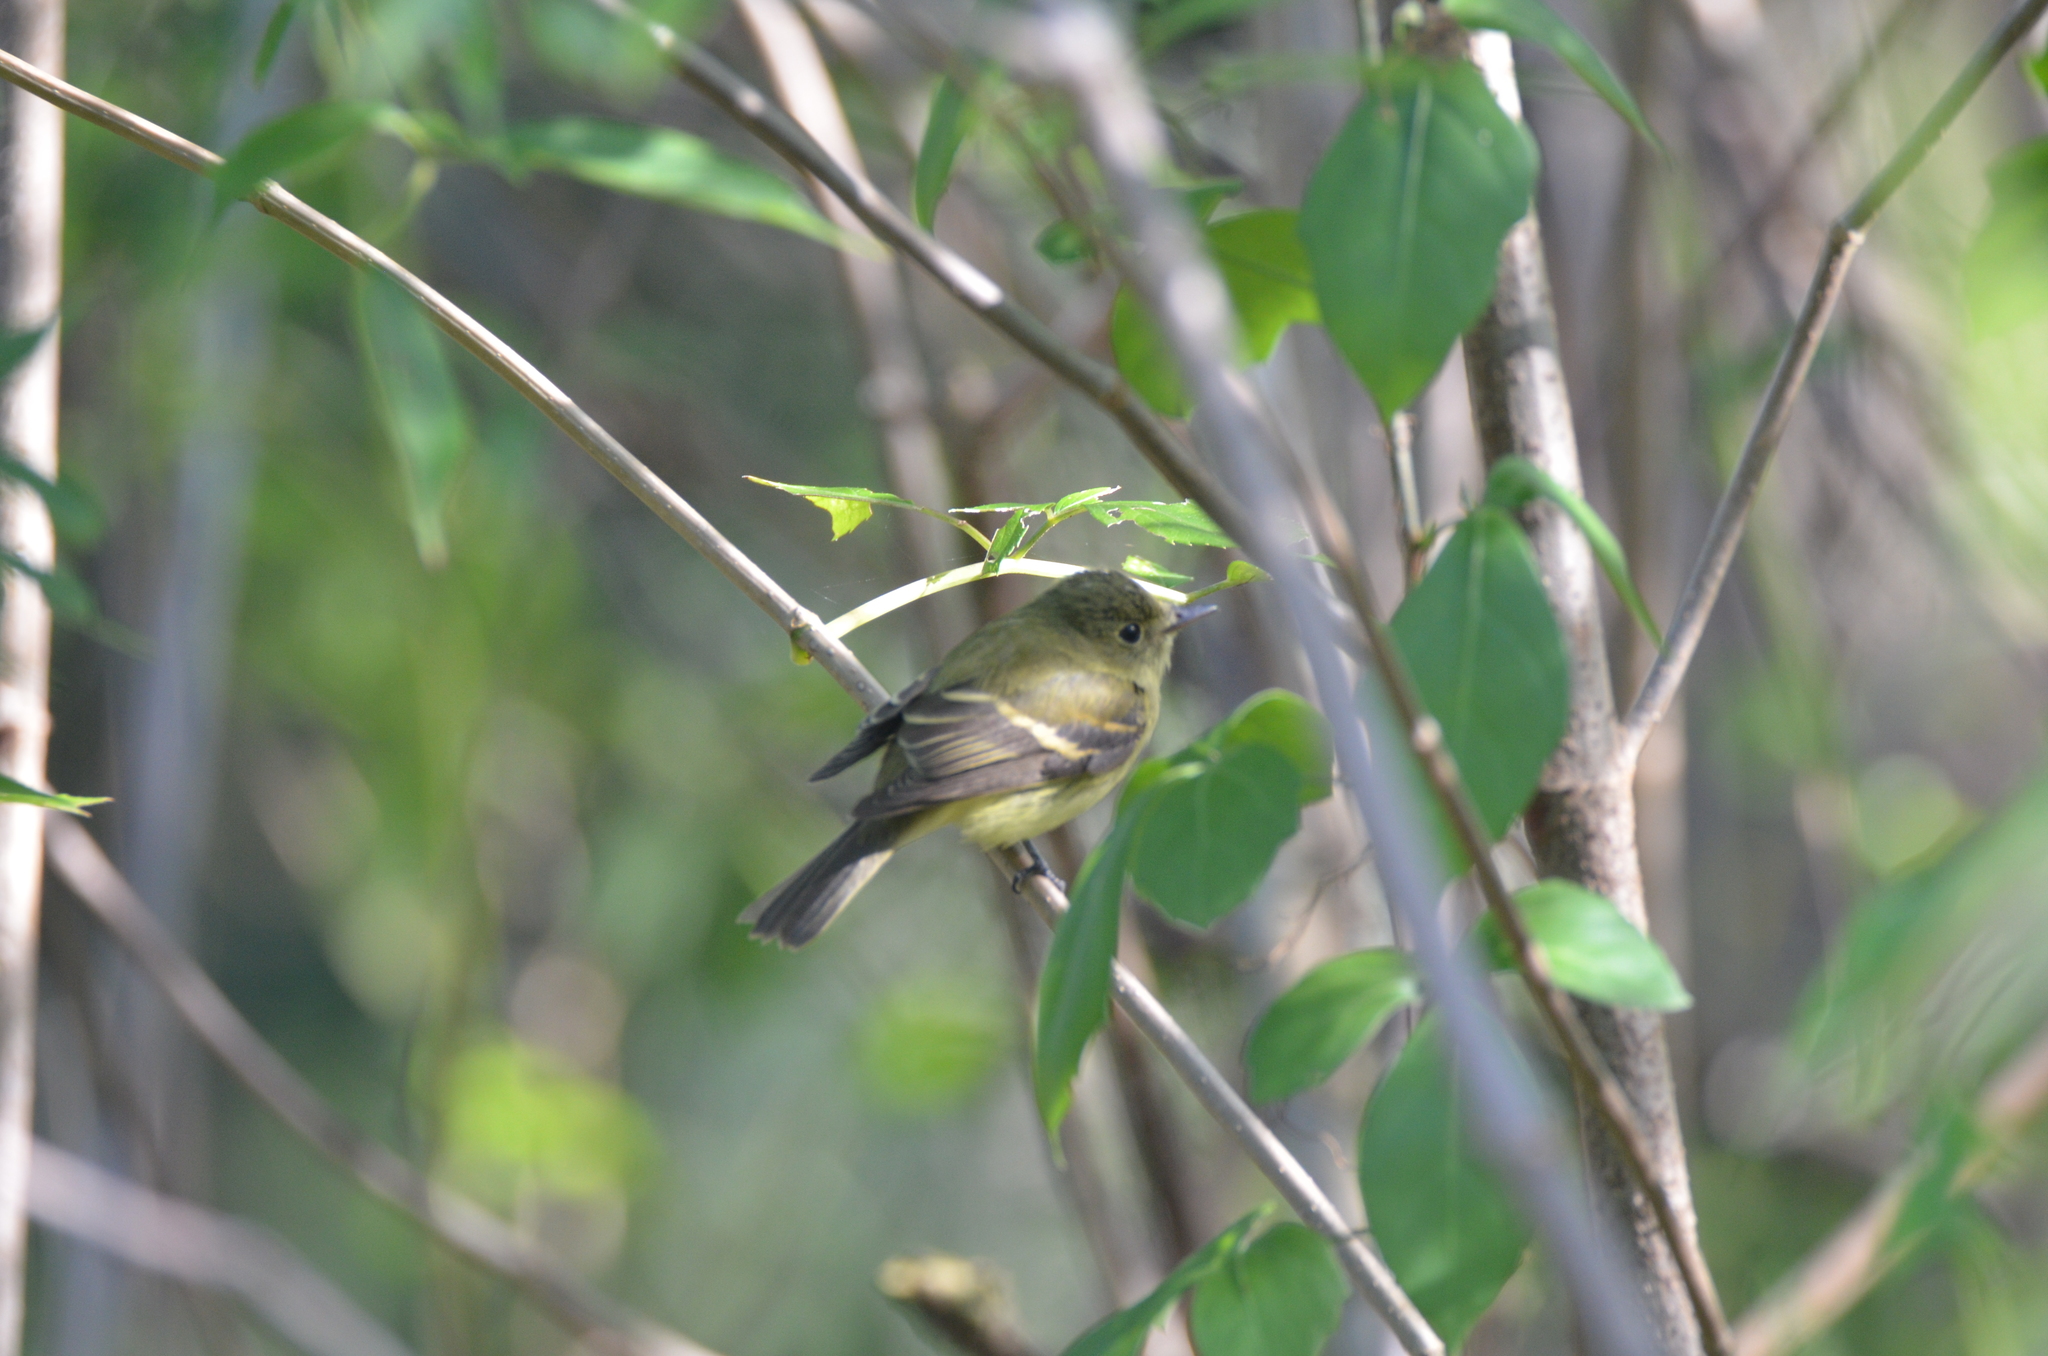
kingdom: Animalia
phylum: Chordata
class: Aves
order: Passeriformes
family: Tyrannidae
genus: Empidonax
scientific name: Empidonax flaviventris
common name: Yellow-bellied flycatcher
